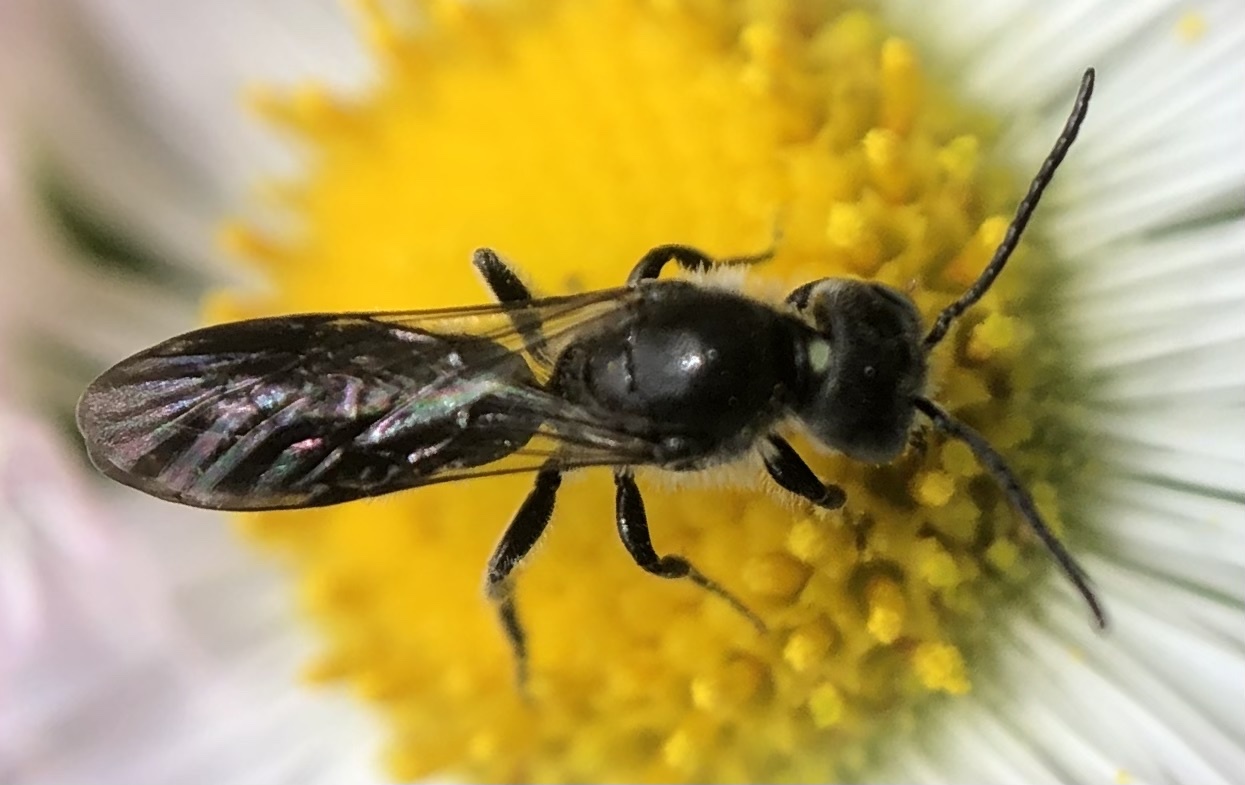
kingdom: Animalia
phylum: Arthropoda
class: Insecta
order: Hymenoptera
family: Megachilidae
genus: Chelostoma
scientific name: Chelostoma philadelphi
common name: Mock-orange scissor bee
